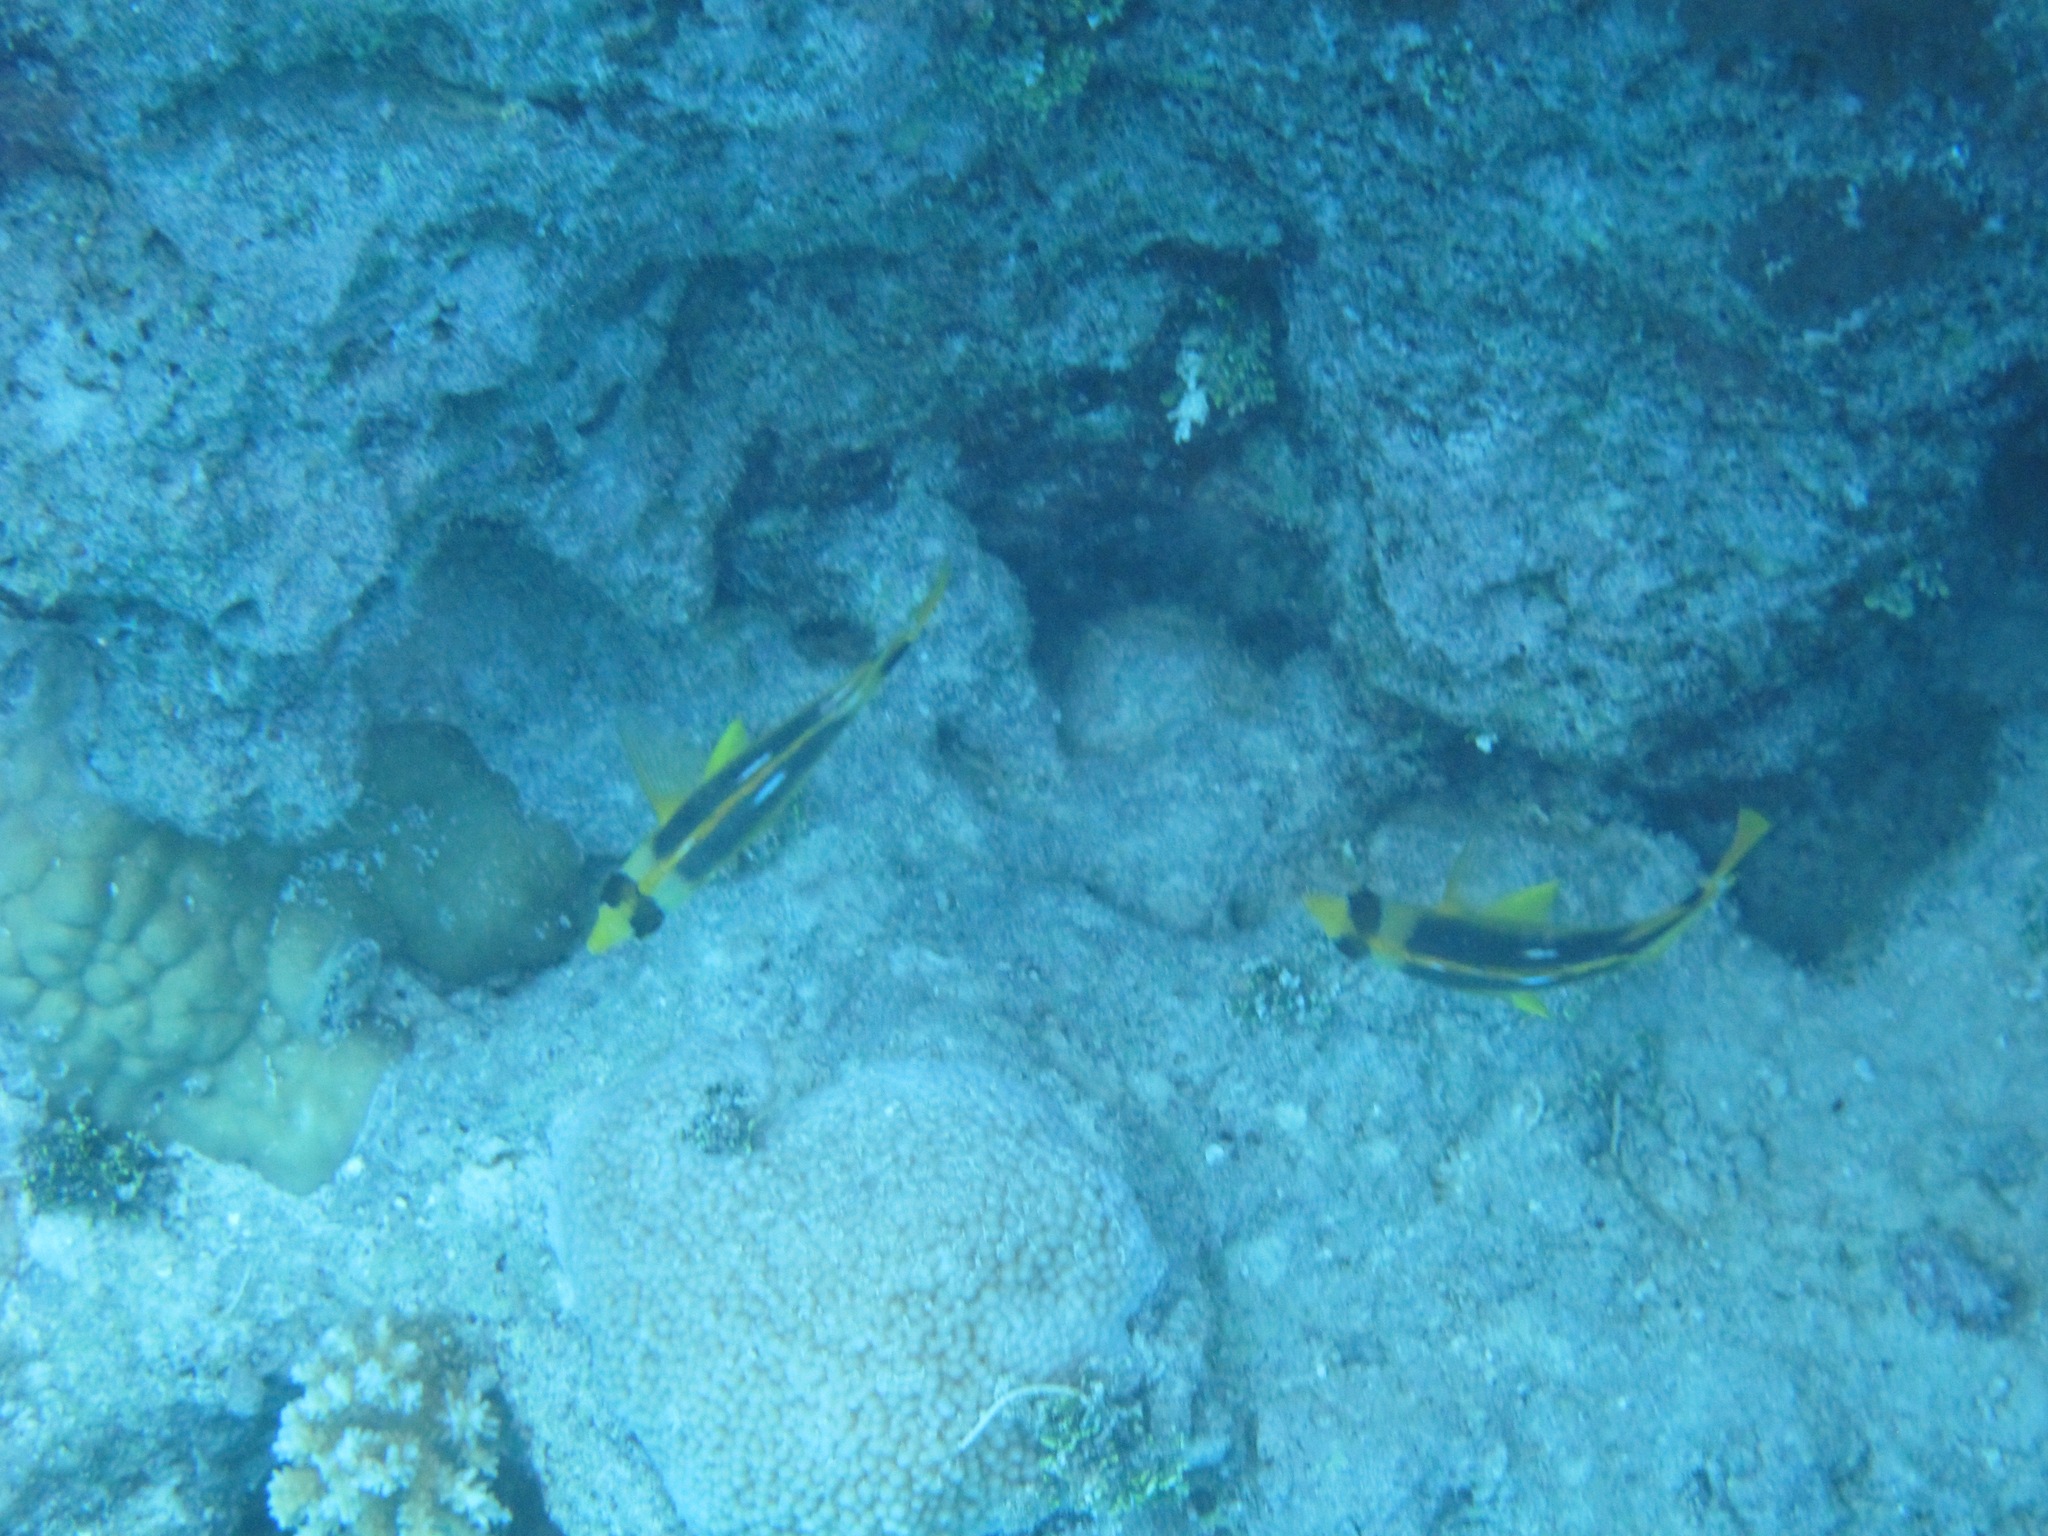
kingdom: Animalia
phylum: Chordata
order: Perciformes
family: Chaetodontidae
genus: Chaetodon
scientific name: Chaetodon quadrimaculatus
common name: Fourspot butterflyfish
